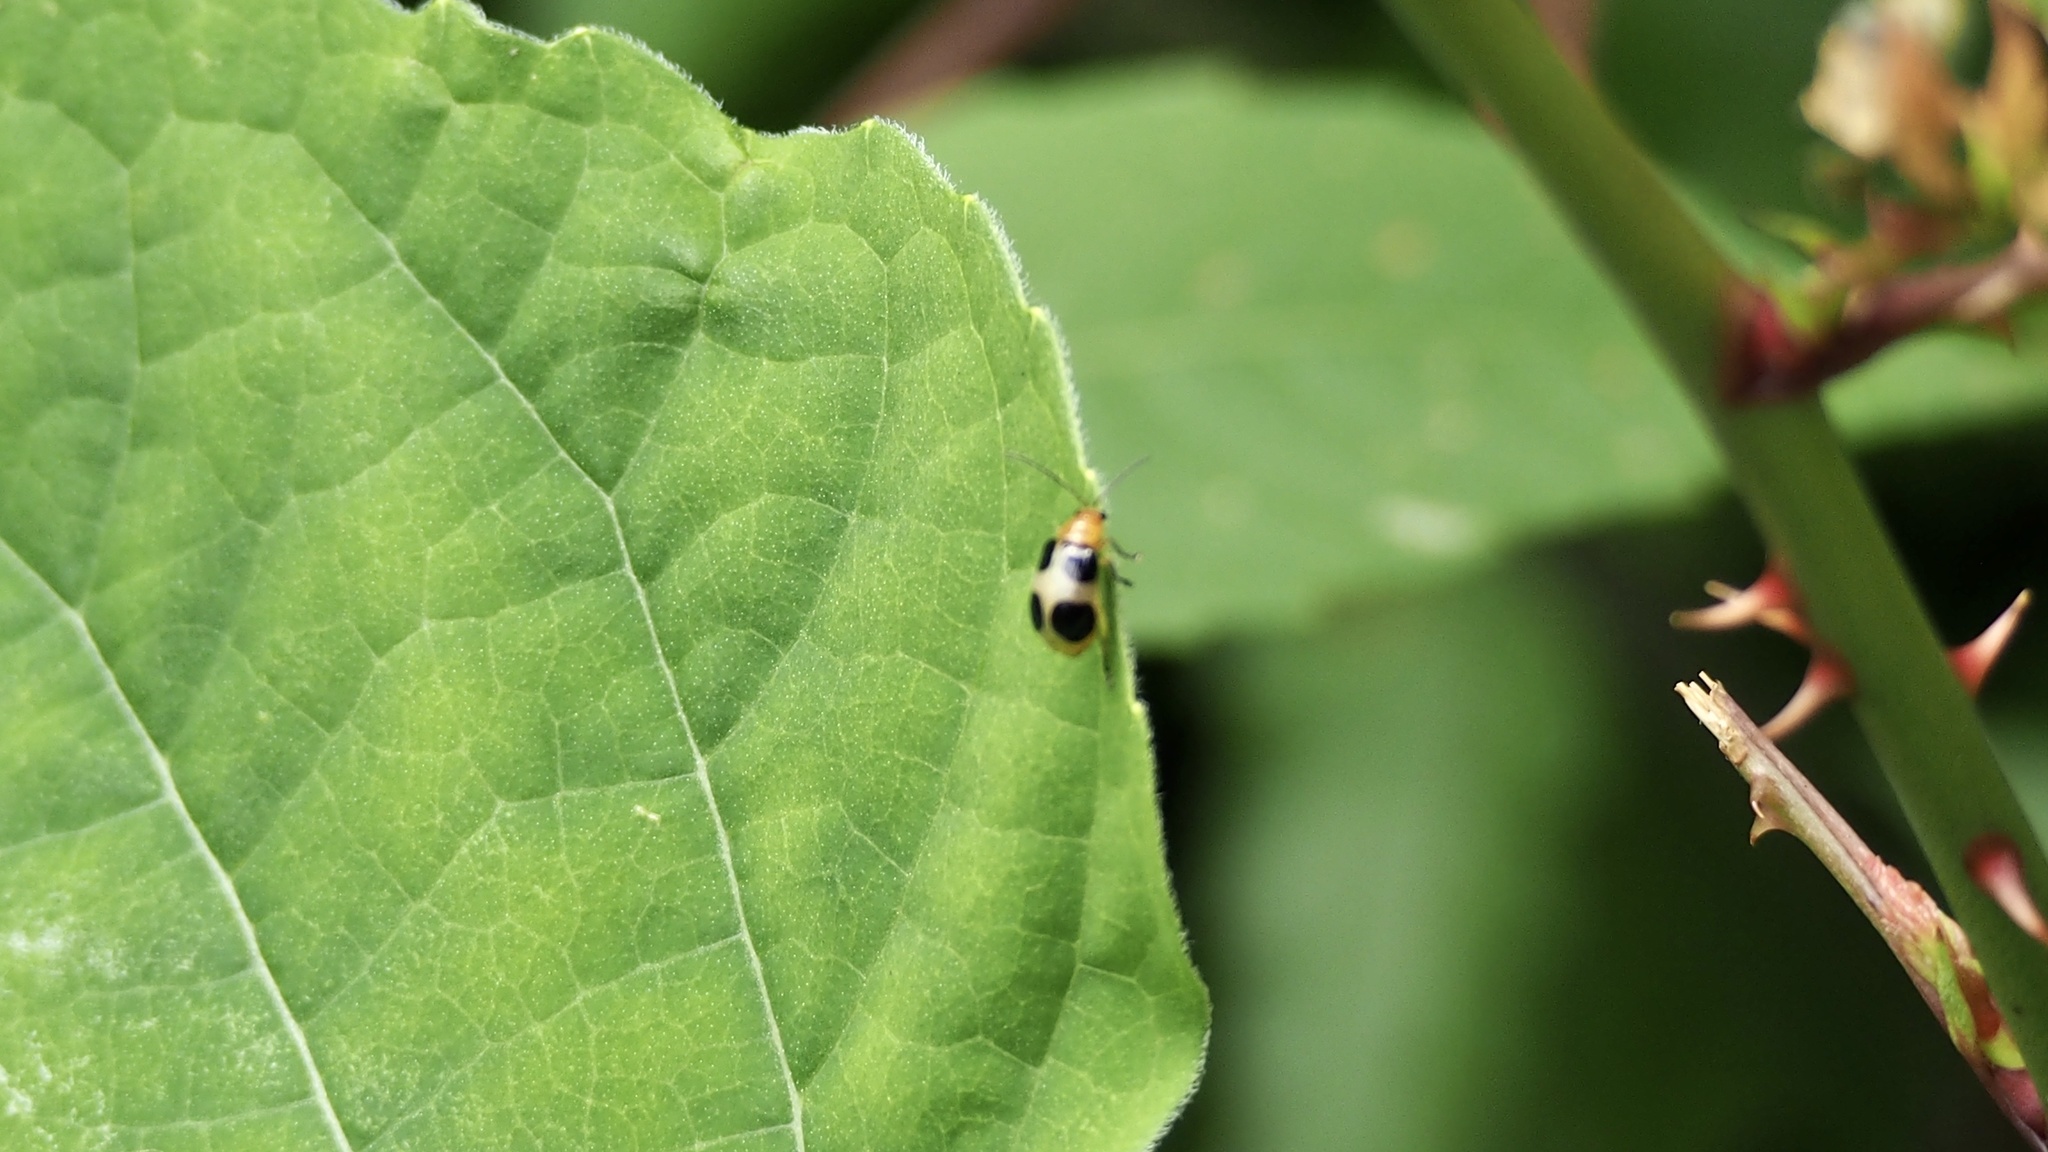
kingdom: Animalia
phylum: Arthropoda
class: Insecta
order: Coleoptera
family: Chrysomelidae
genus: Paridea
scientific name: Paridea
